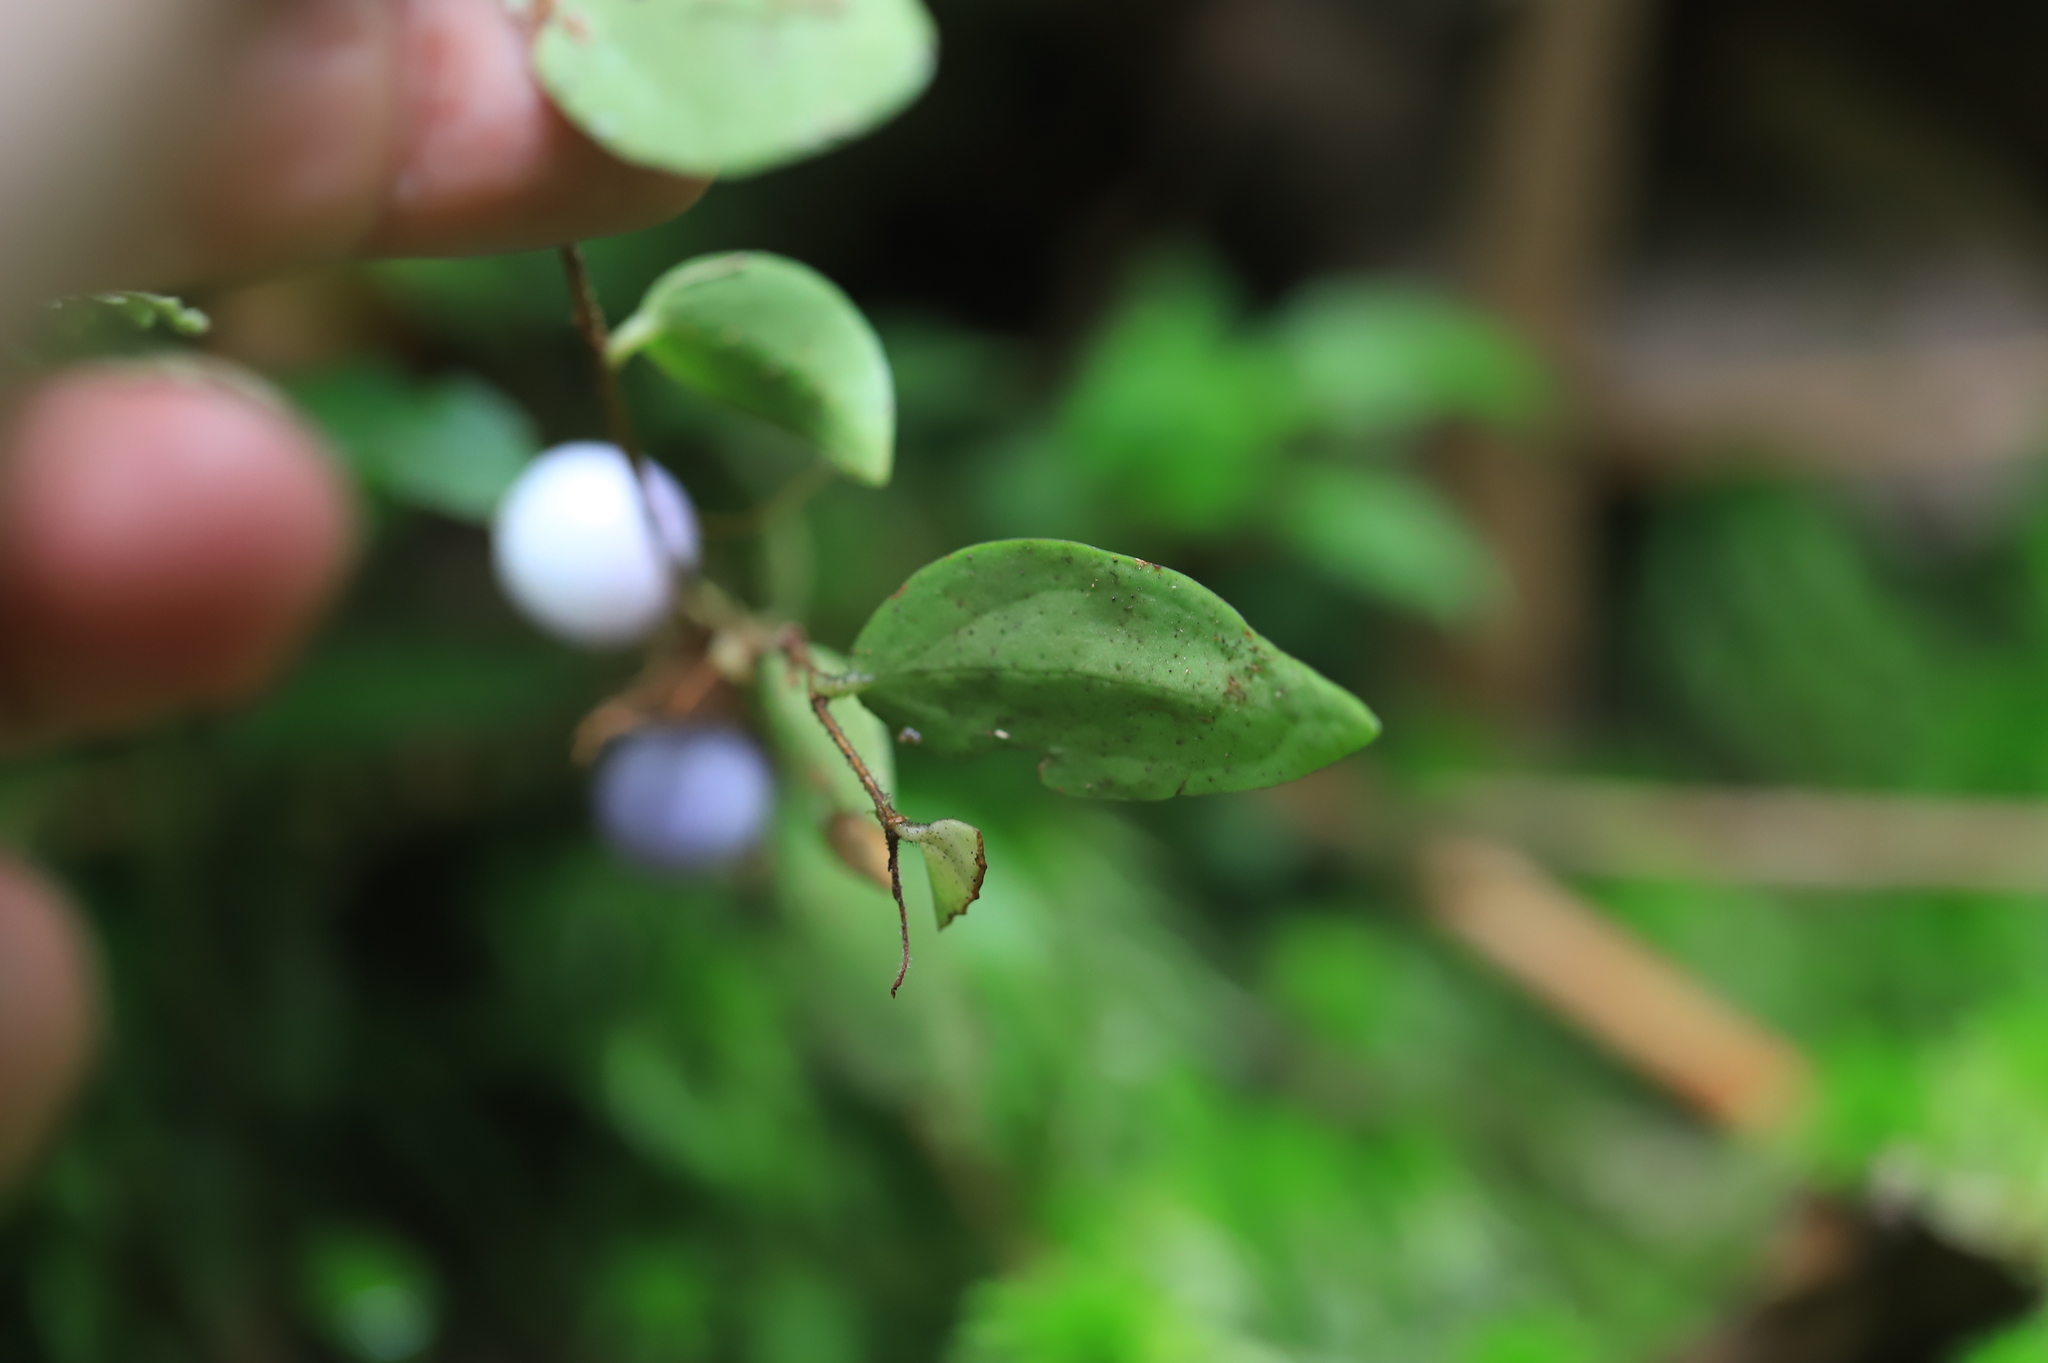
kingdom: Plantae
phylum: Tracheophyta
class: Magnoliopsida
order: Ericales
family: Ericaceae
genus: Sphyrospermum
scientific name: Sphyrospermum buxifolium
